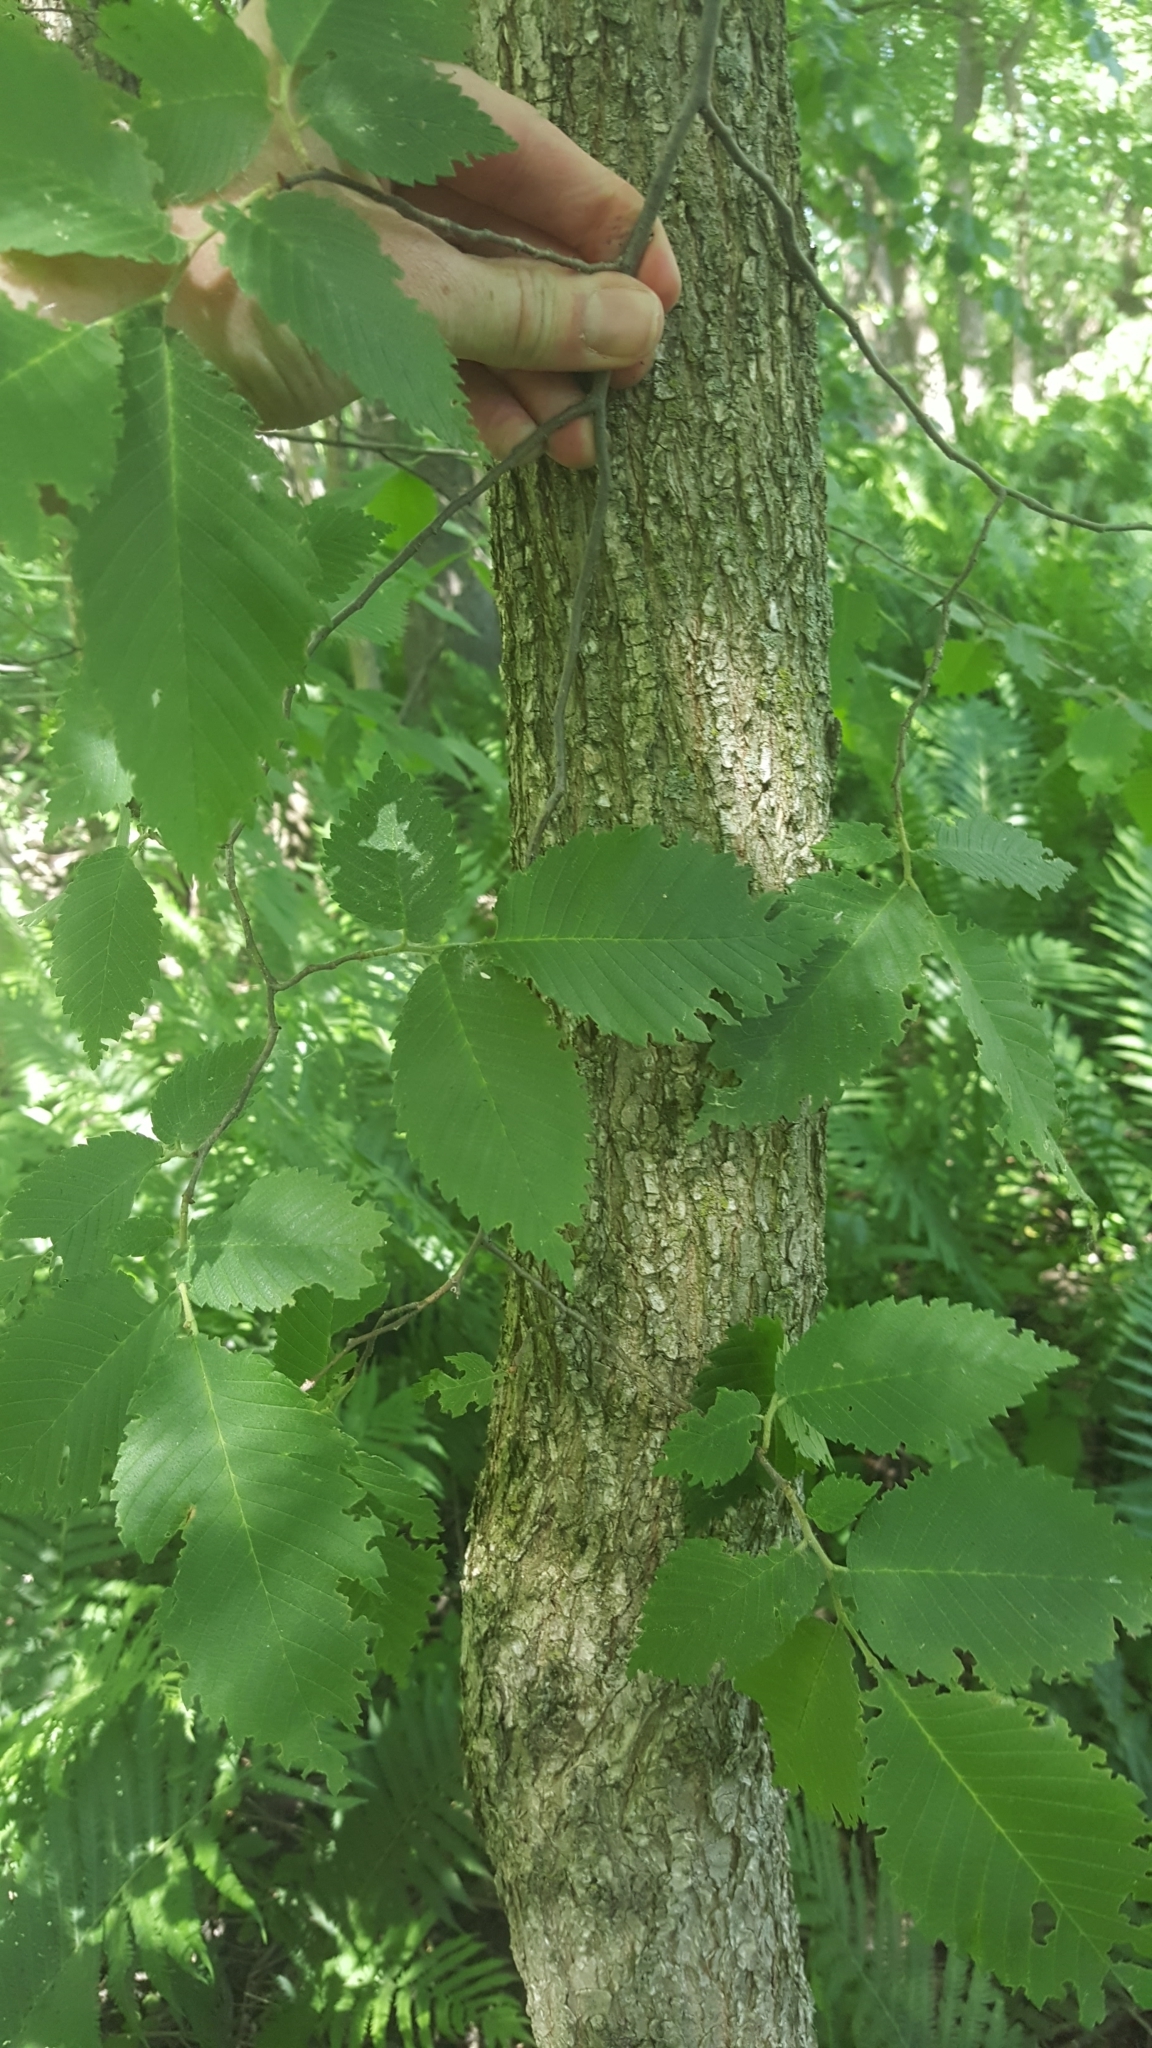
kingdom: Plantae
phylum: Tracheophyta
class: Magnoliopsida
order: Rosales
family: Ulmaceae
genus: Ulmus
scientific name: Ulmus americana
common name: American elm
